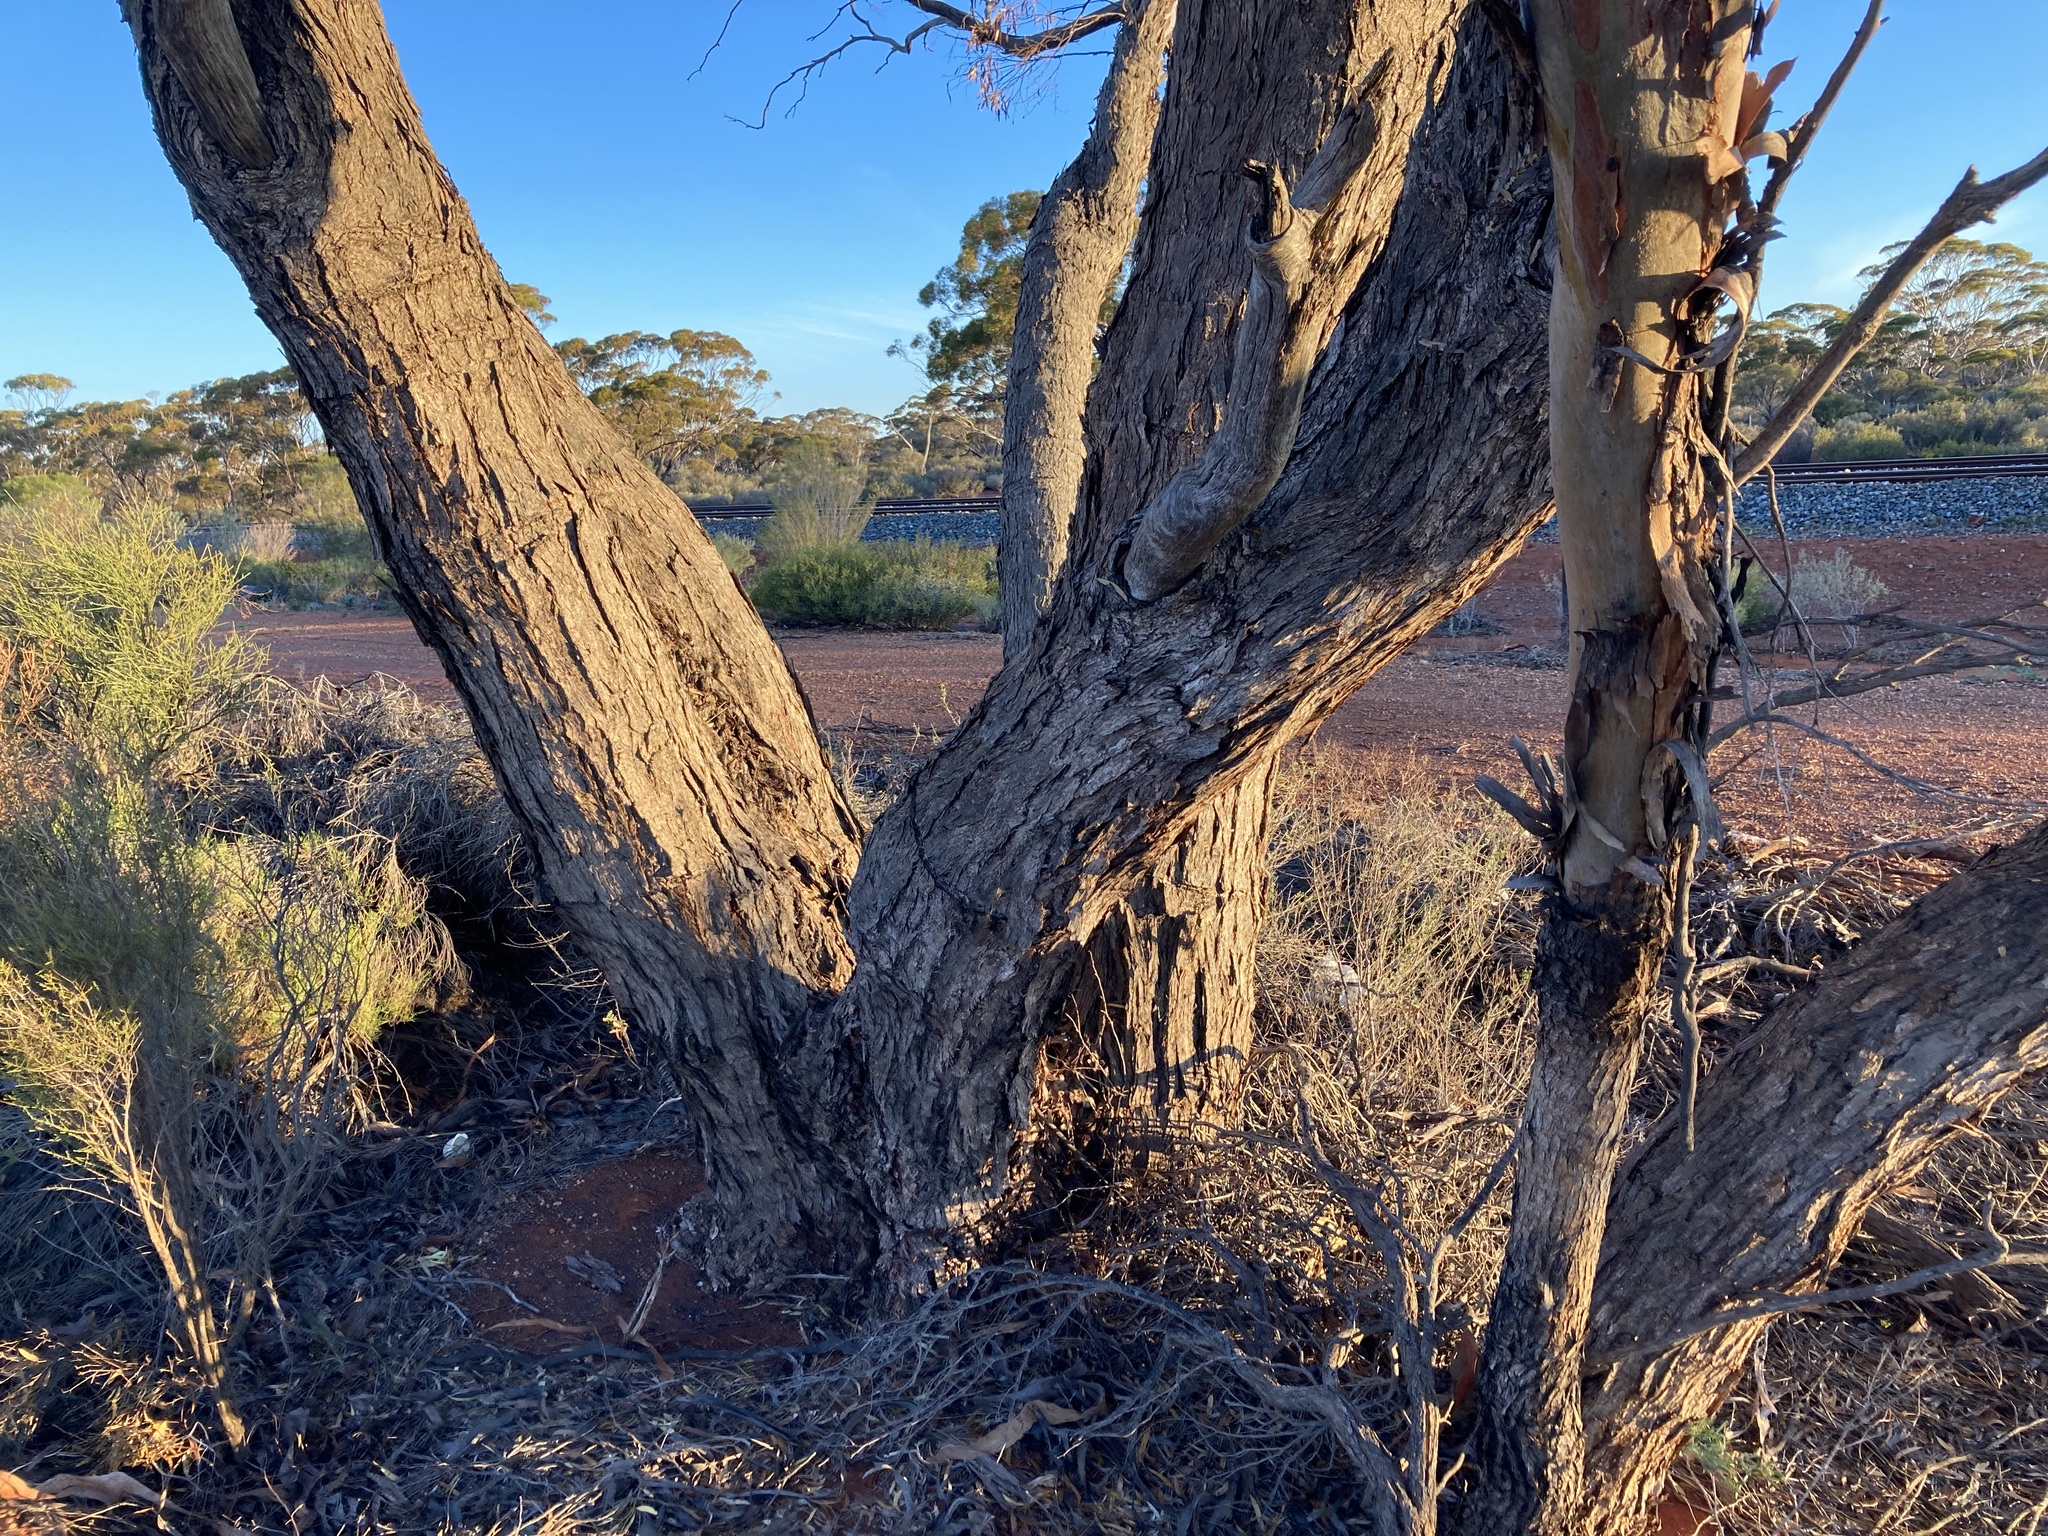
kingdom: Plantae
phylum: Tracheophyta
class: Magnoliopsida
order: Myrtales
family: Myrtaceae
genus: Eucalyptus
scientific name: Eucalyptus oleosa
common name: Oil mallee
